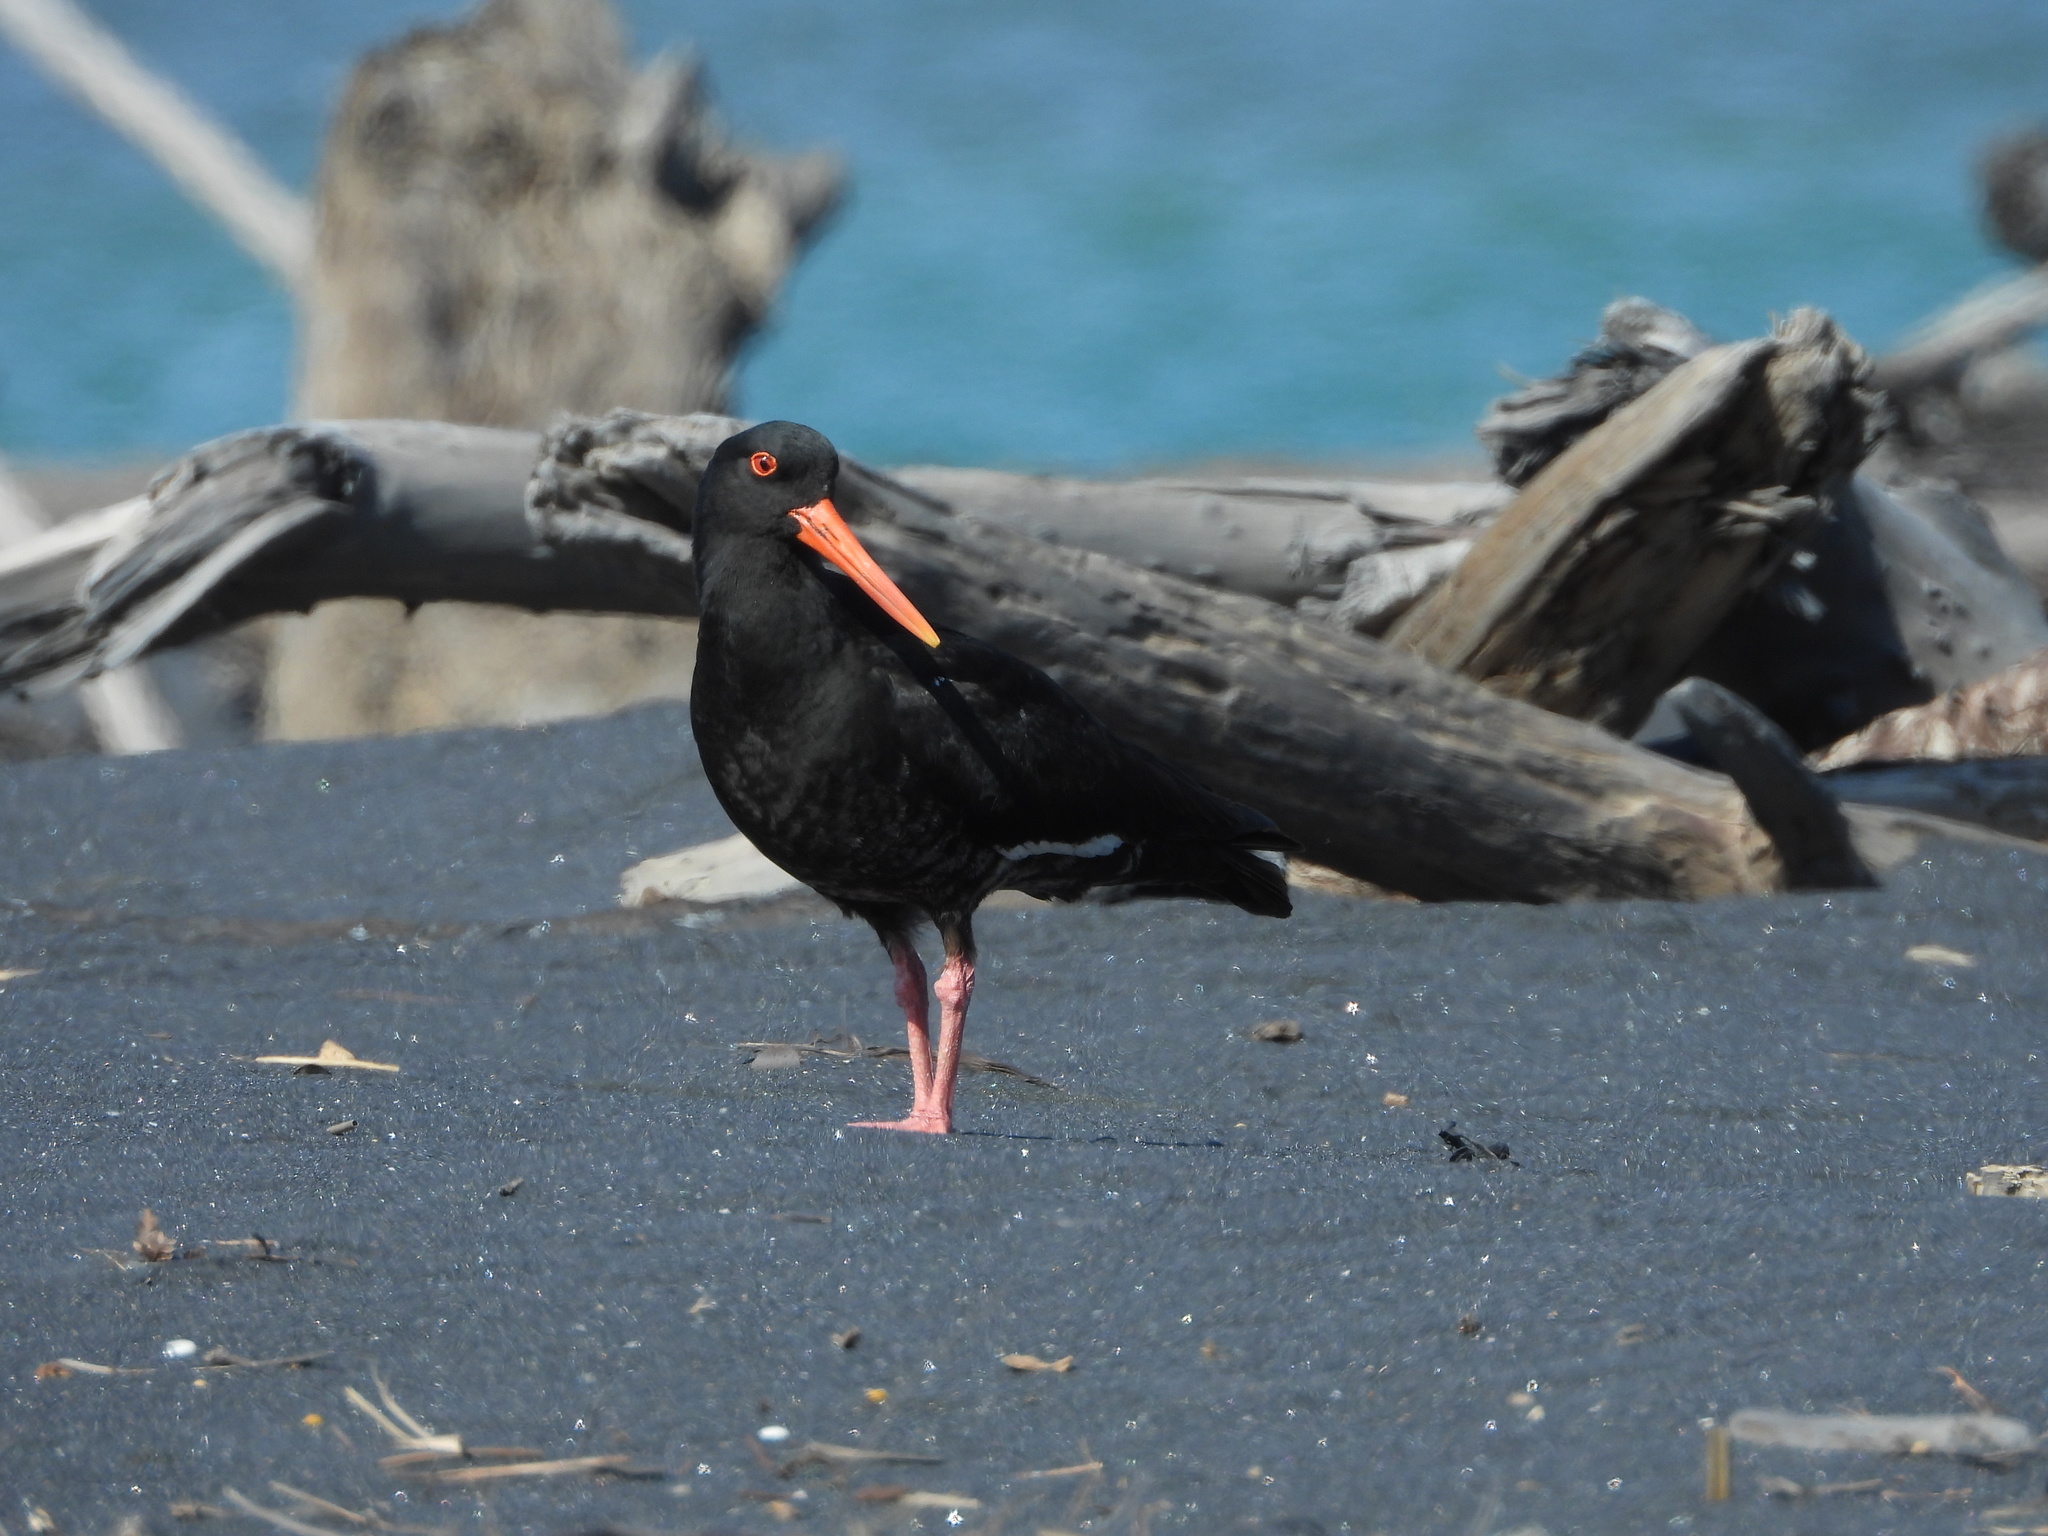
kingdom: Animalia
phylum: Chordata
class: Aves
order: Charadriiformes
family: Haematopodidae
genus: Haematopus
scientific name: Haematopus unicolor
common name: Variable oystercatcher
